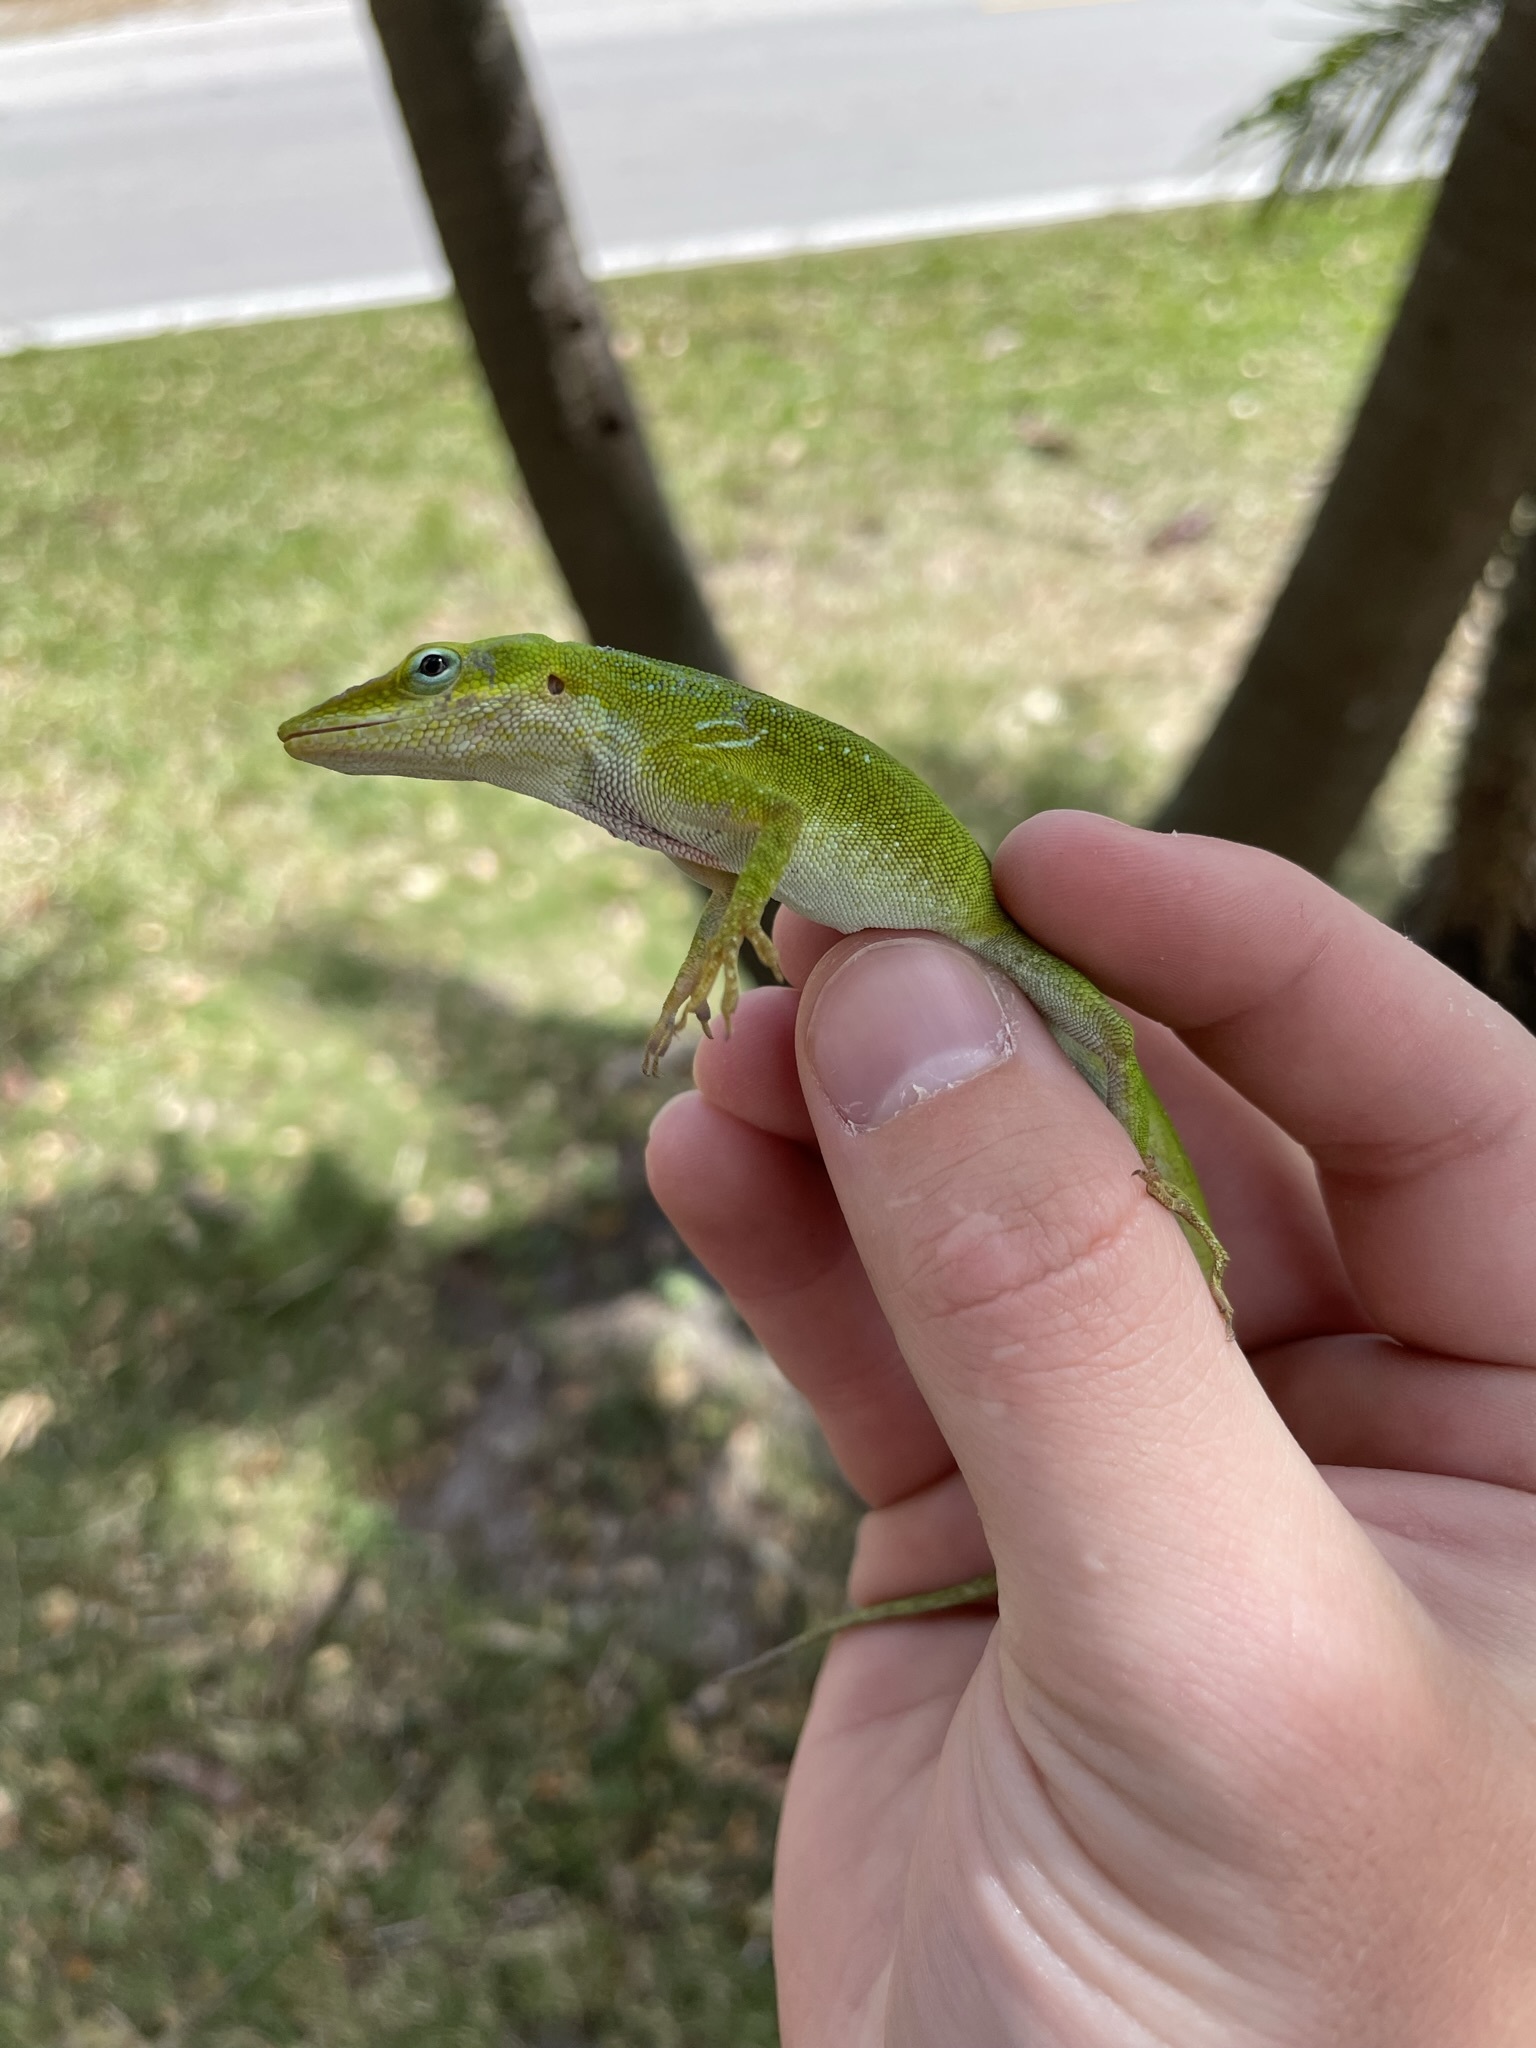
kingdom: Animalia
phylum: Chordata
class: Squamata
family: Dactyloidae
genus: Anolis
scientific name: Anolis carolinensis
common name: Green anole
